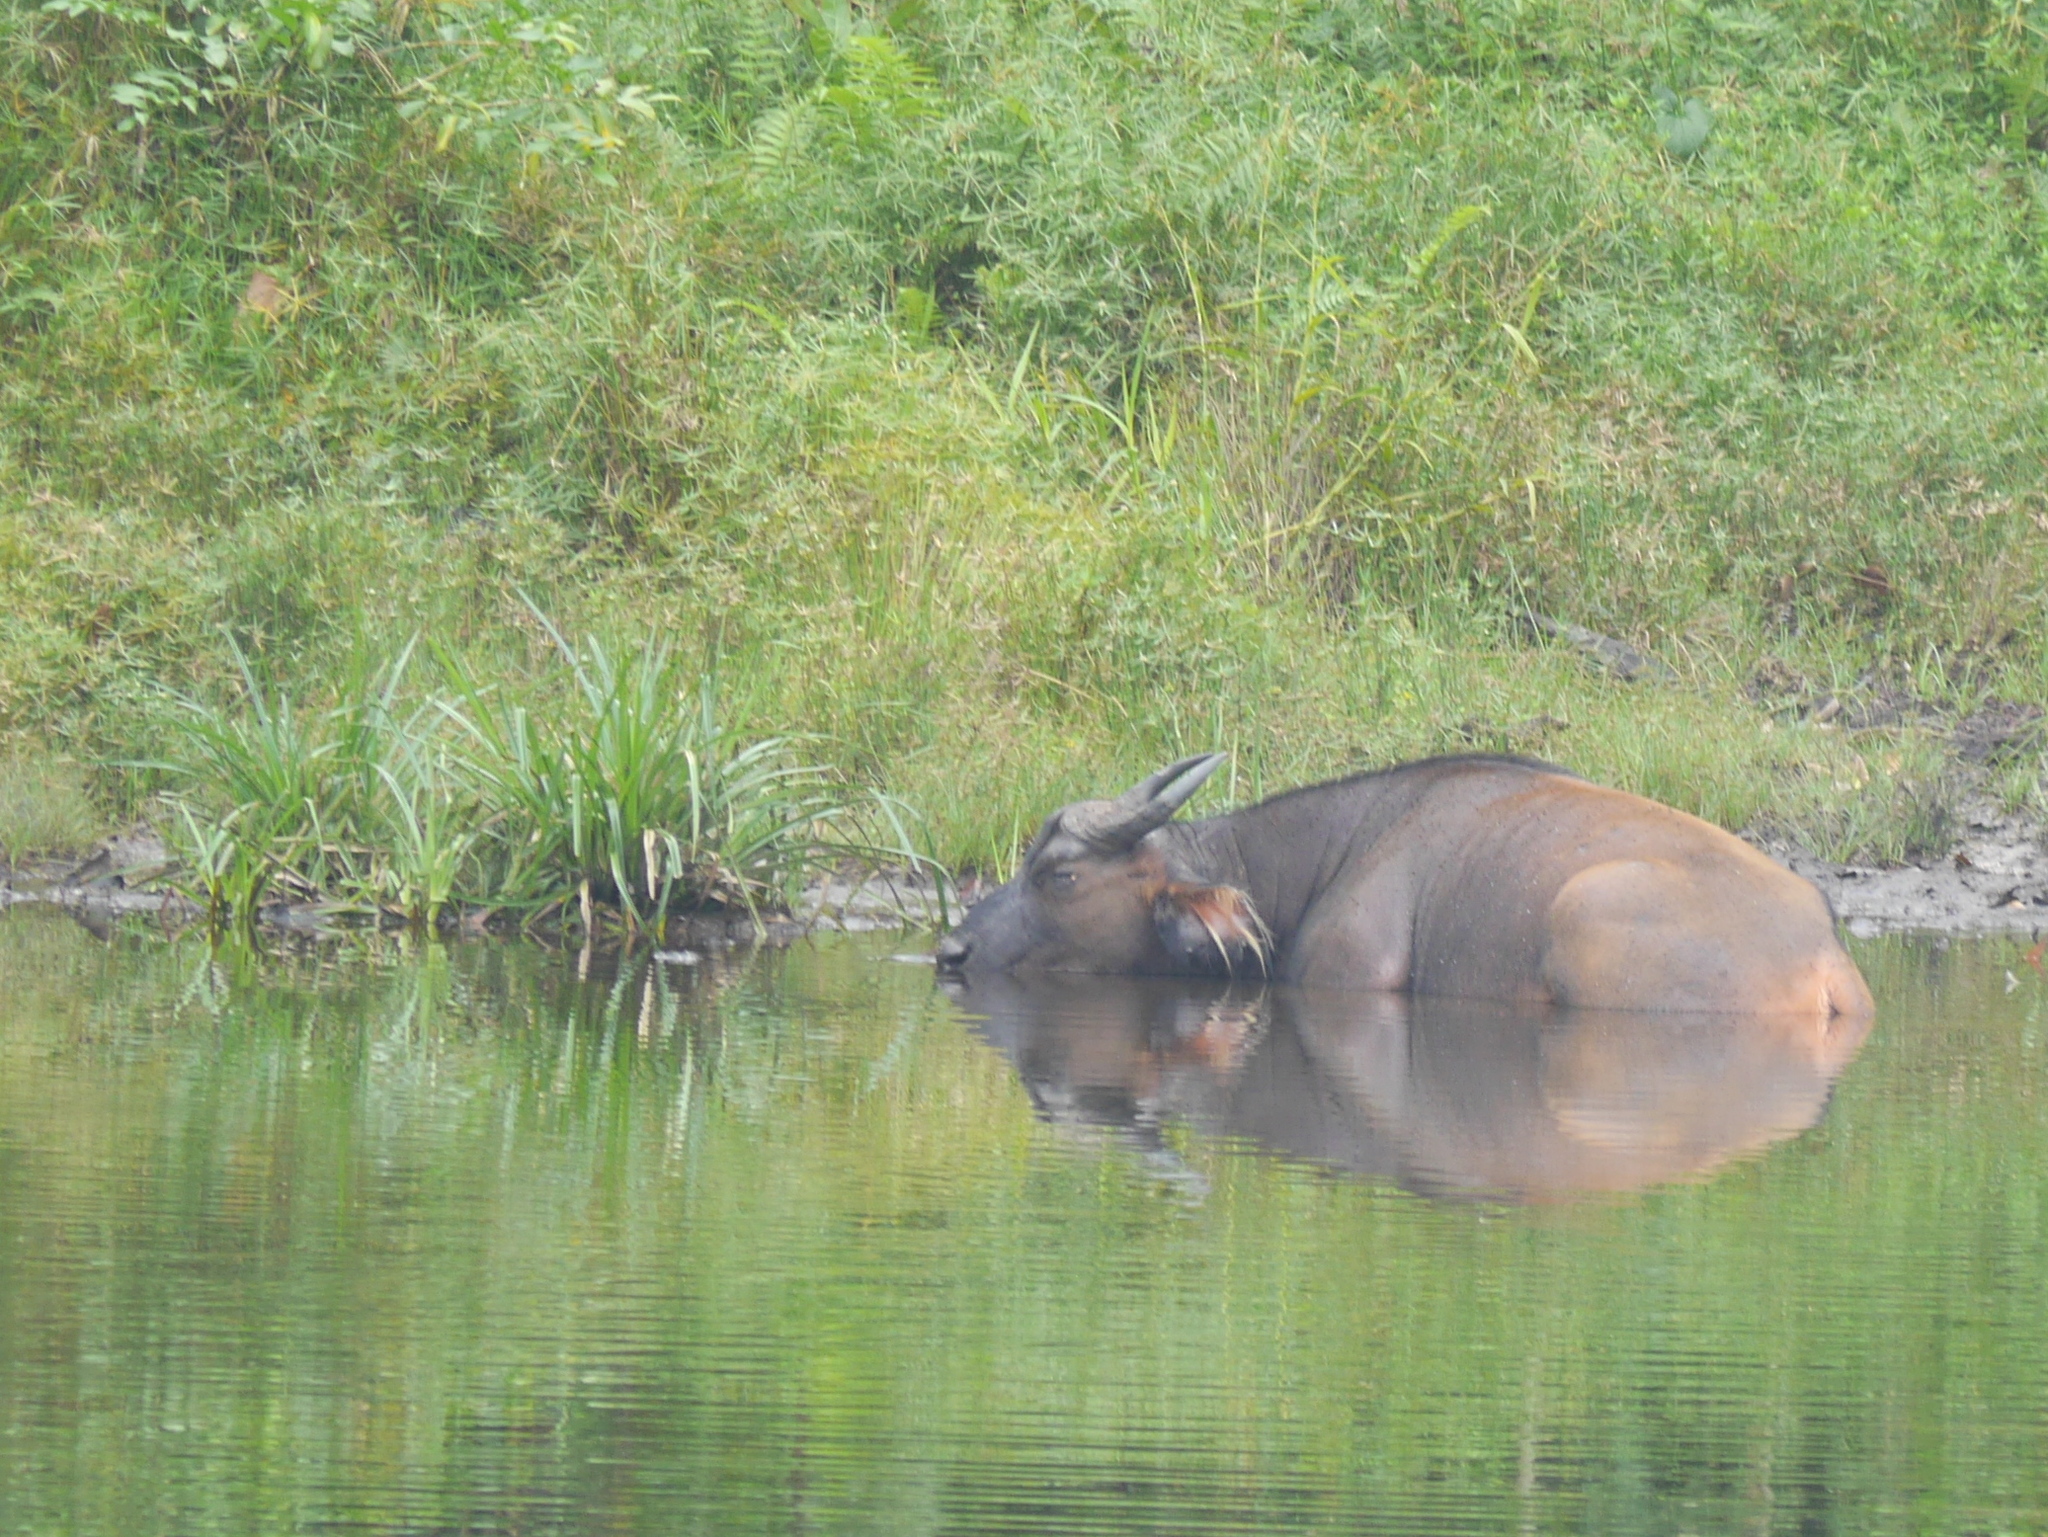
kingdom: Animalia
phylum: Chordata
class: Mammalia
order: Artiodactyla
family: Bovidae
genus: Syncerus
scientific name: Syncerus caffer
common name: African buffalo
